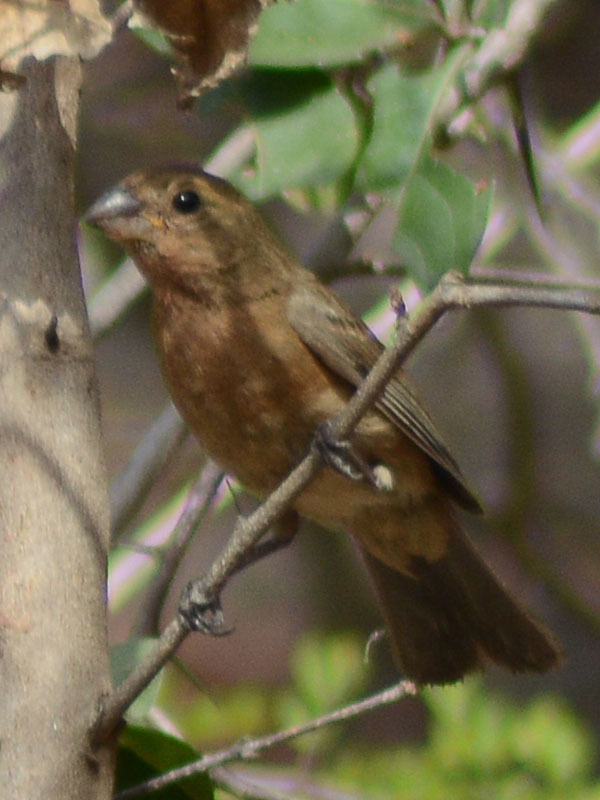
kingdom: Animalia
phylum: Chordata
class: Aves
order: Passeriformes
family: Cardinalidae
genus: Cyanocompsa
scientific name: Cyanocompsa parellina
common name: Blue bunting
